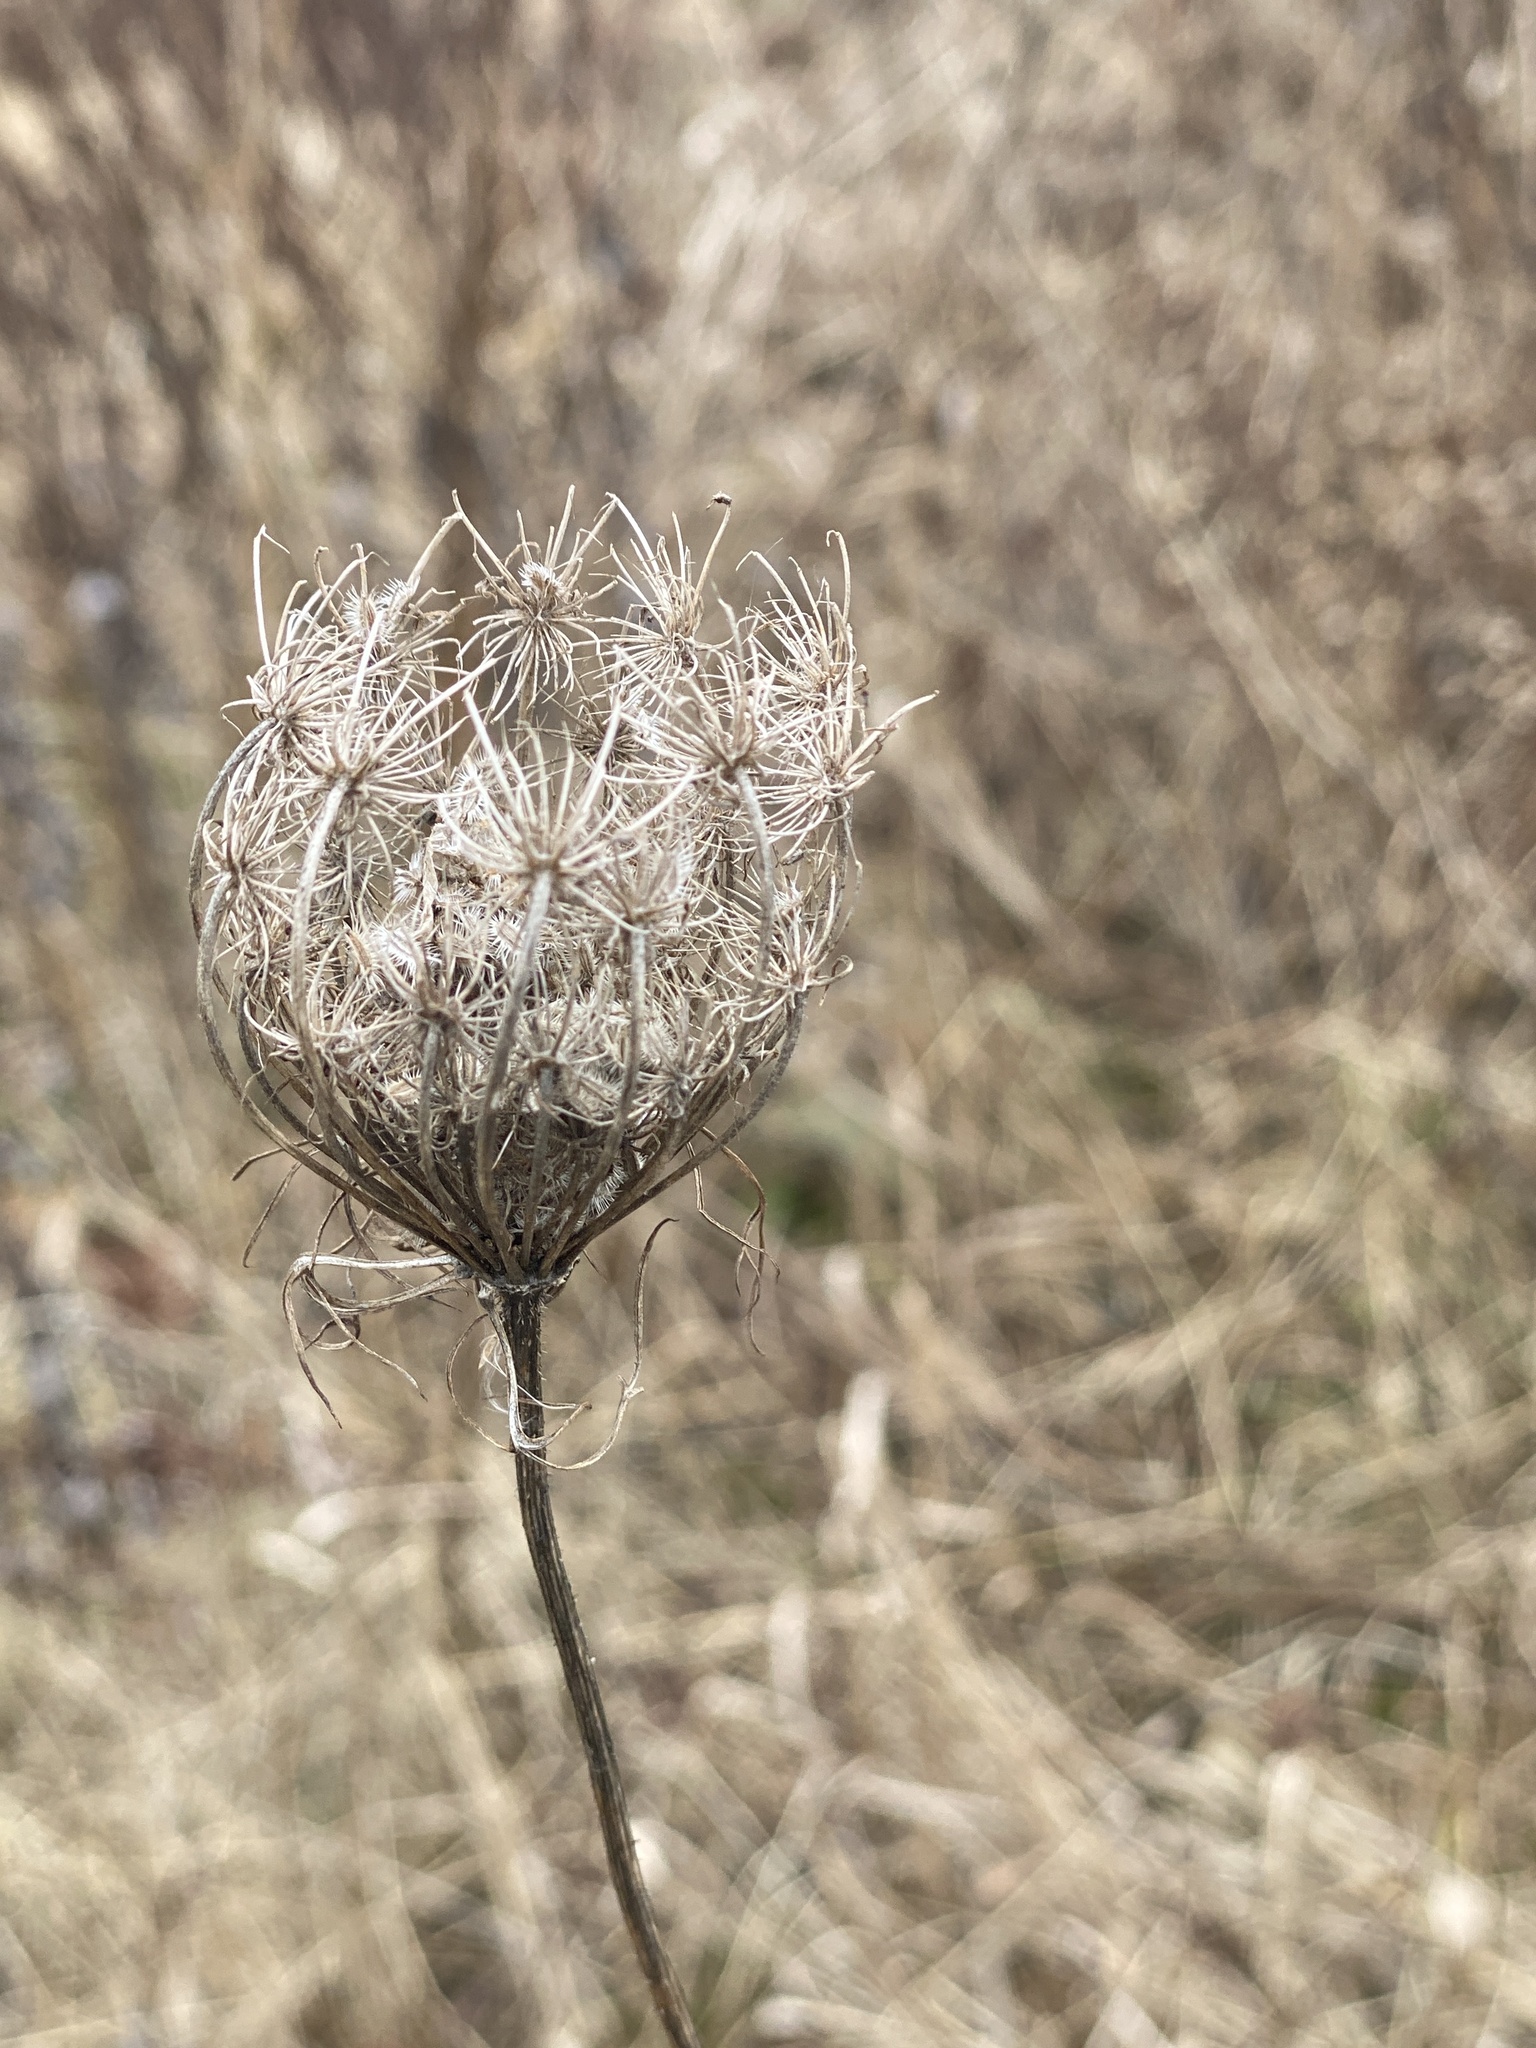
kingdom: Plantae
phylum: Tracheophyta
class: Magnoliopsida
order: Apiales
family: Apiaceae
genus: Daucus
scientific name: Daucus carota
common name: Wild carrot
